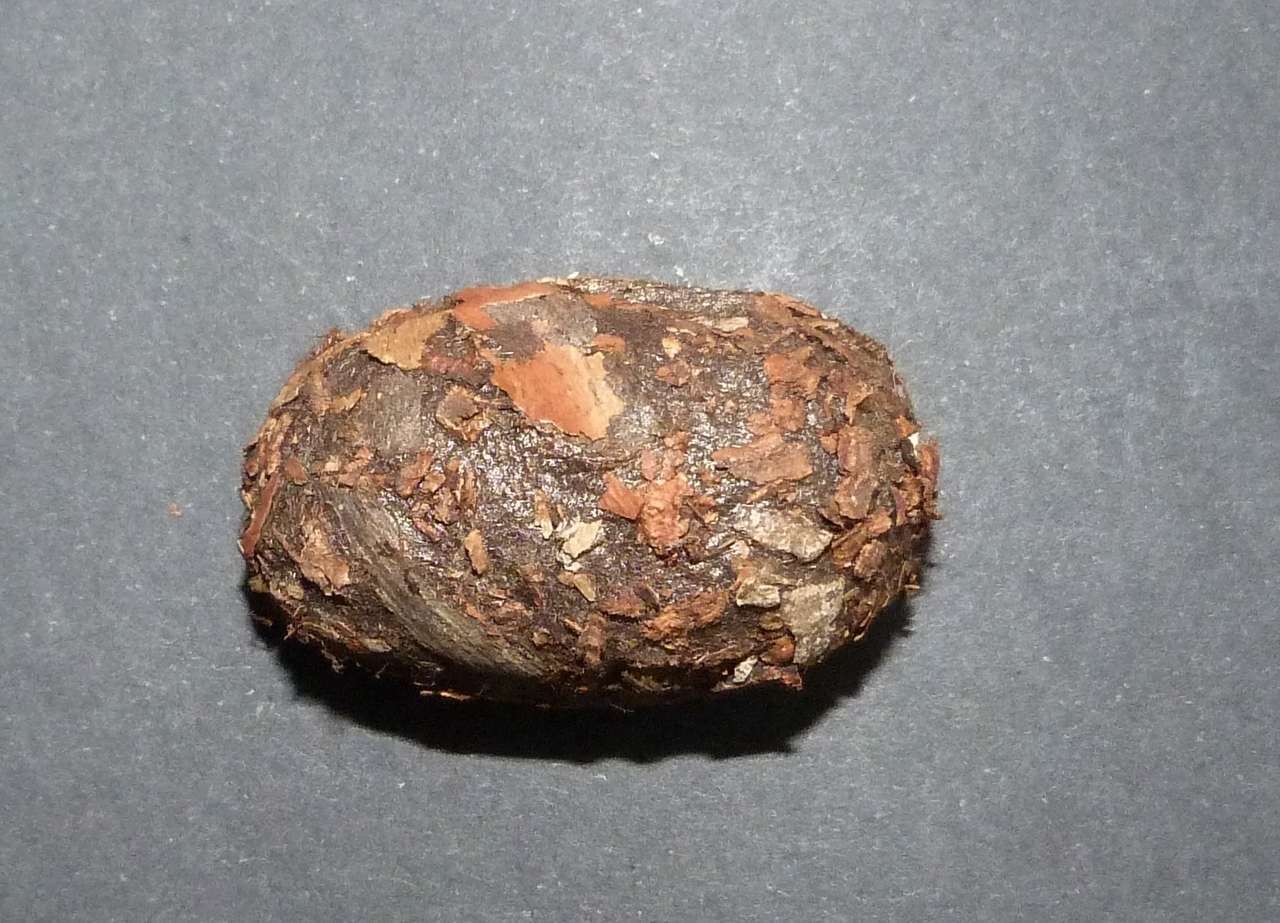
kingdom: Animalia
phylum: Arthropoda
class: Insecta
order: Lepidoptera
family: Saturniidae
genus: Opodiphthera
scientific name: Opodiphthera
